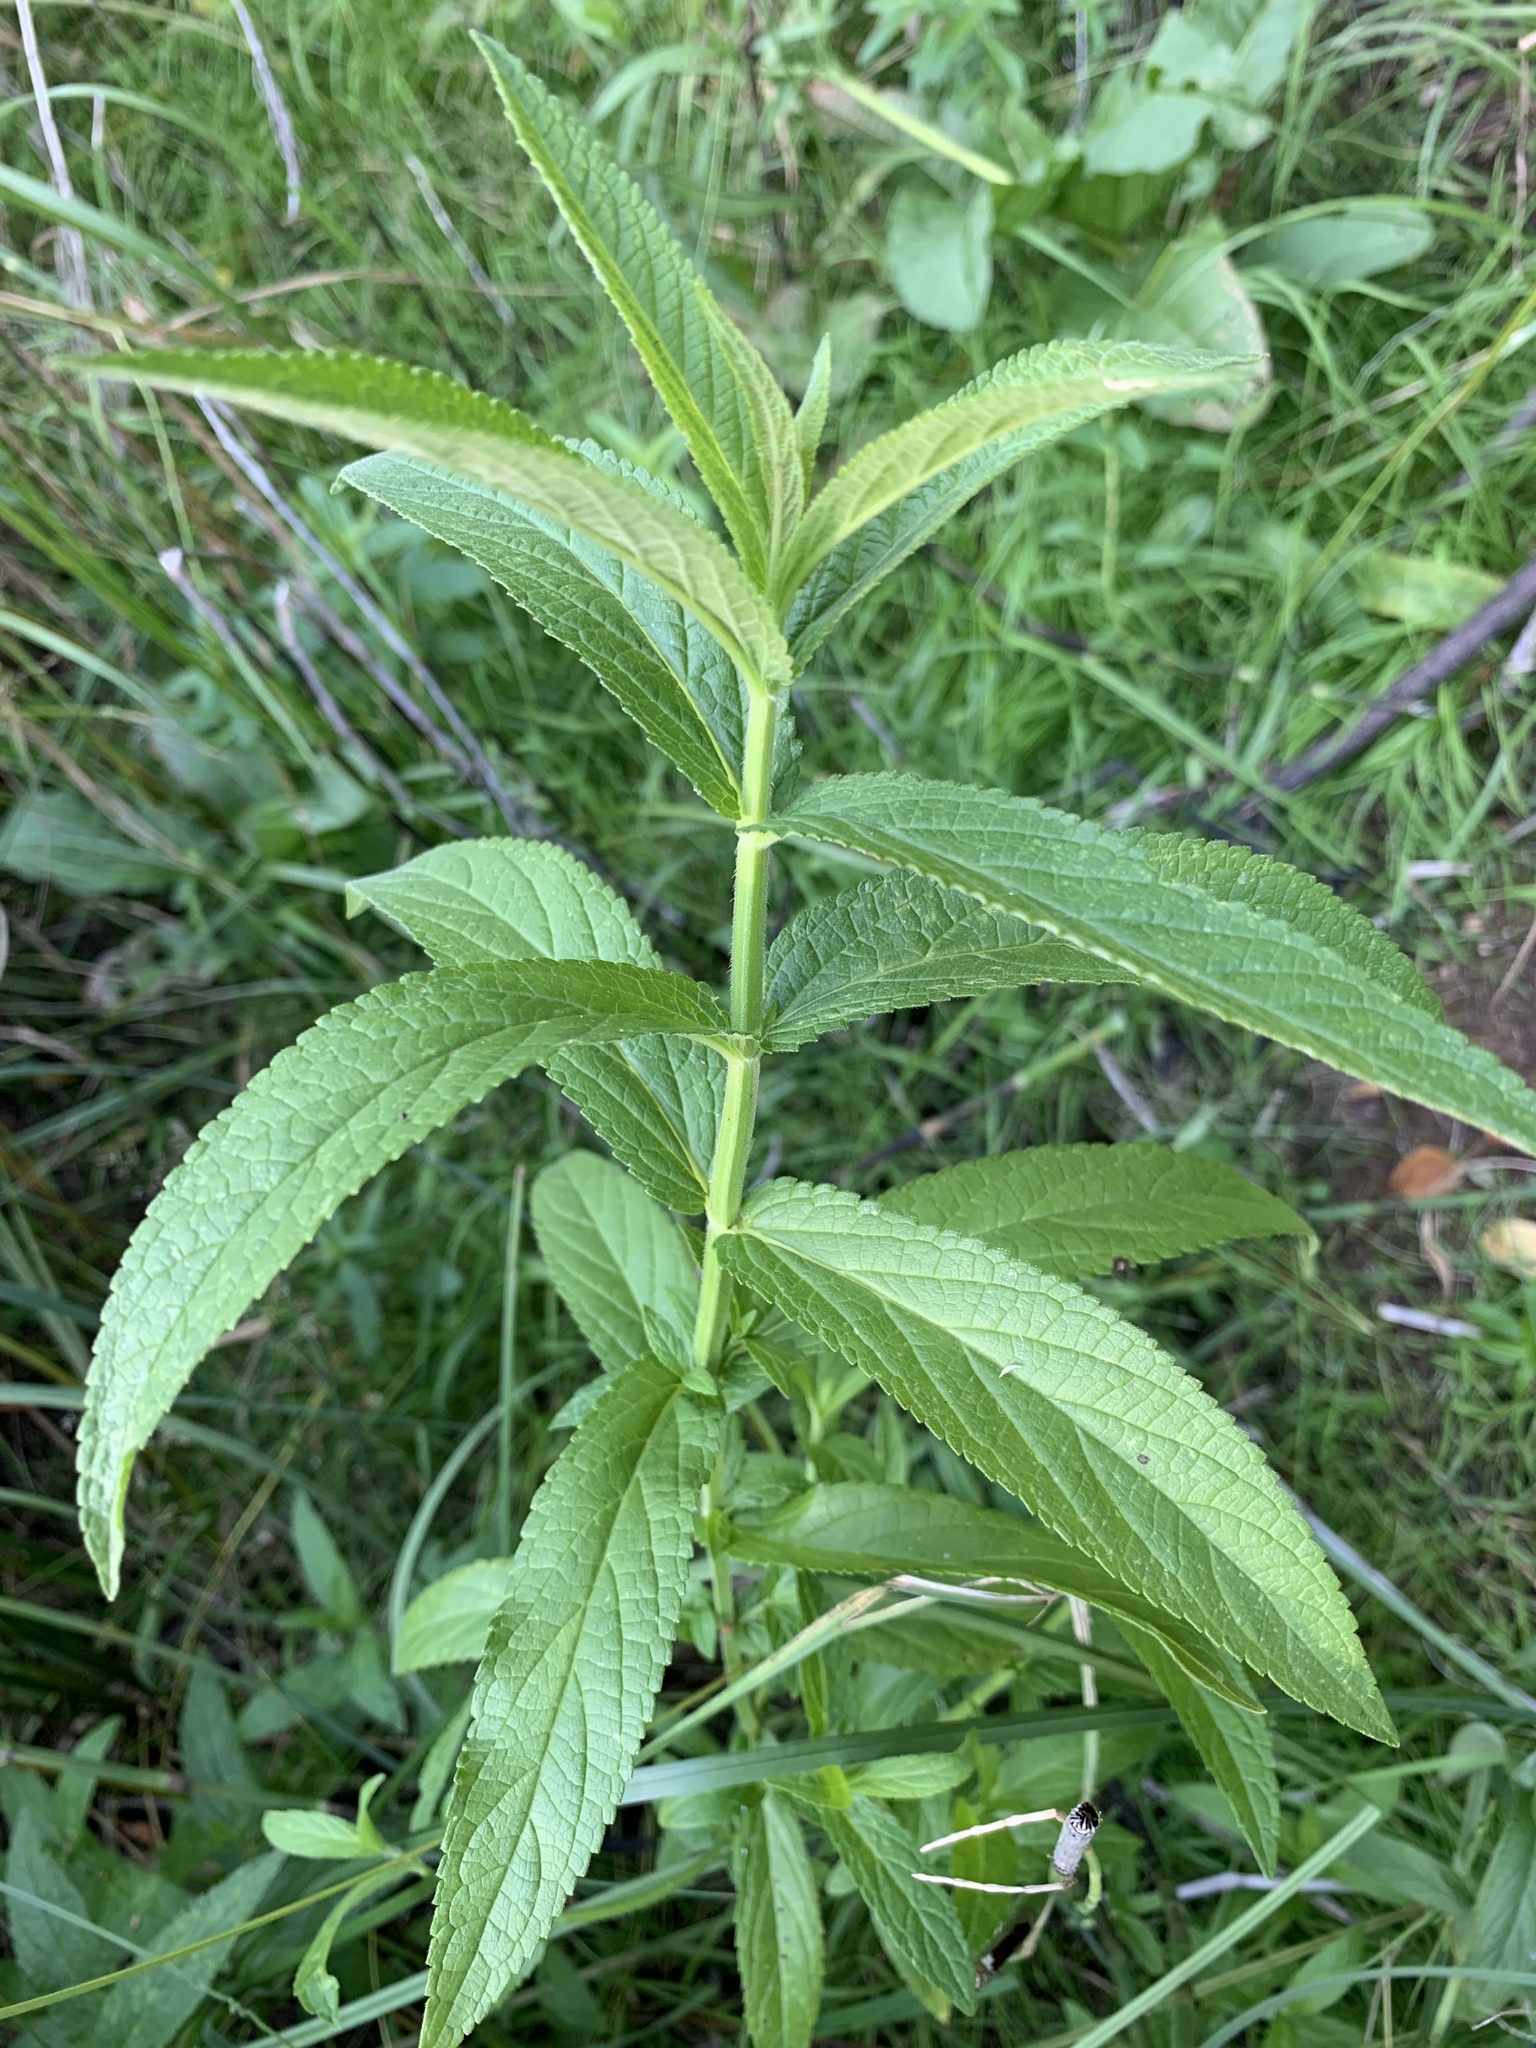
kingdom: Plantae
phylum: Tracheophyta
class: Magnoliopsida
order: Lamiales
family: Lamiaceae
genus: Stachys
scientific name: Stachys palustris
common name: Marsh woundwort
